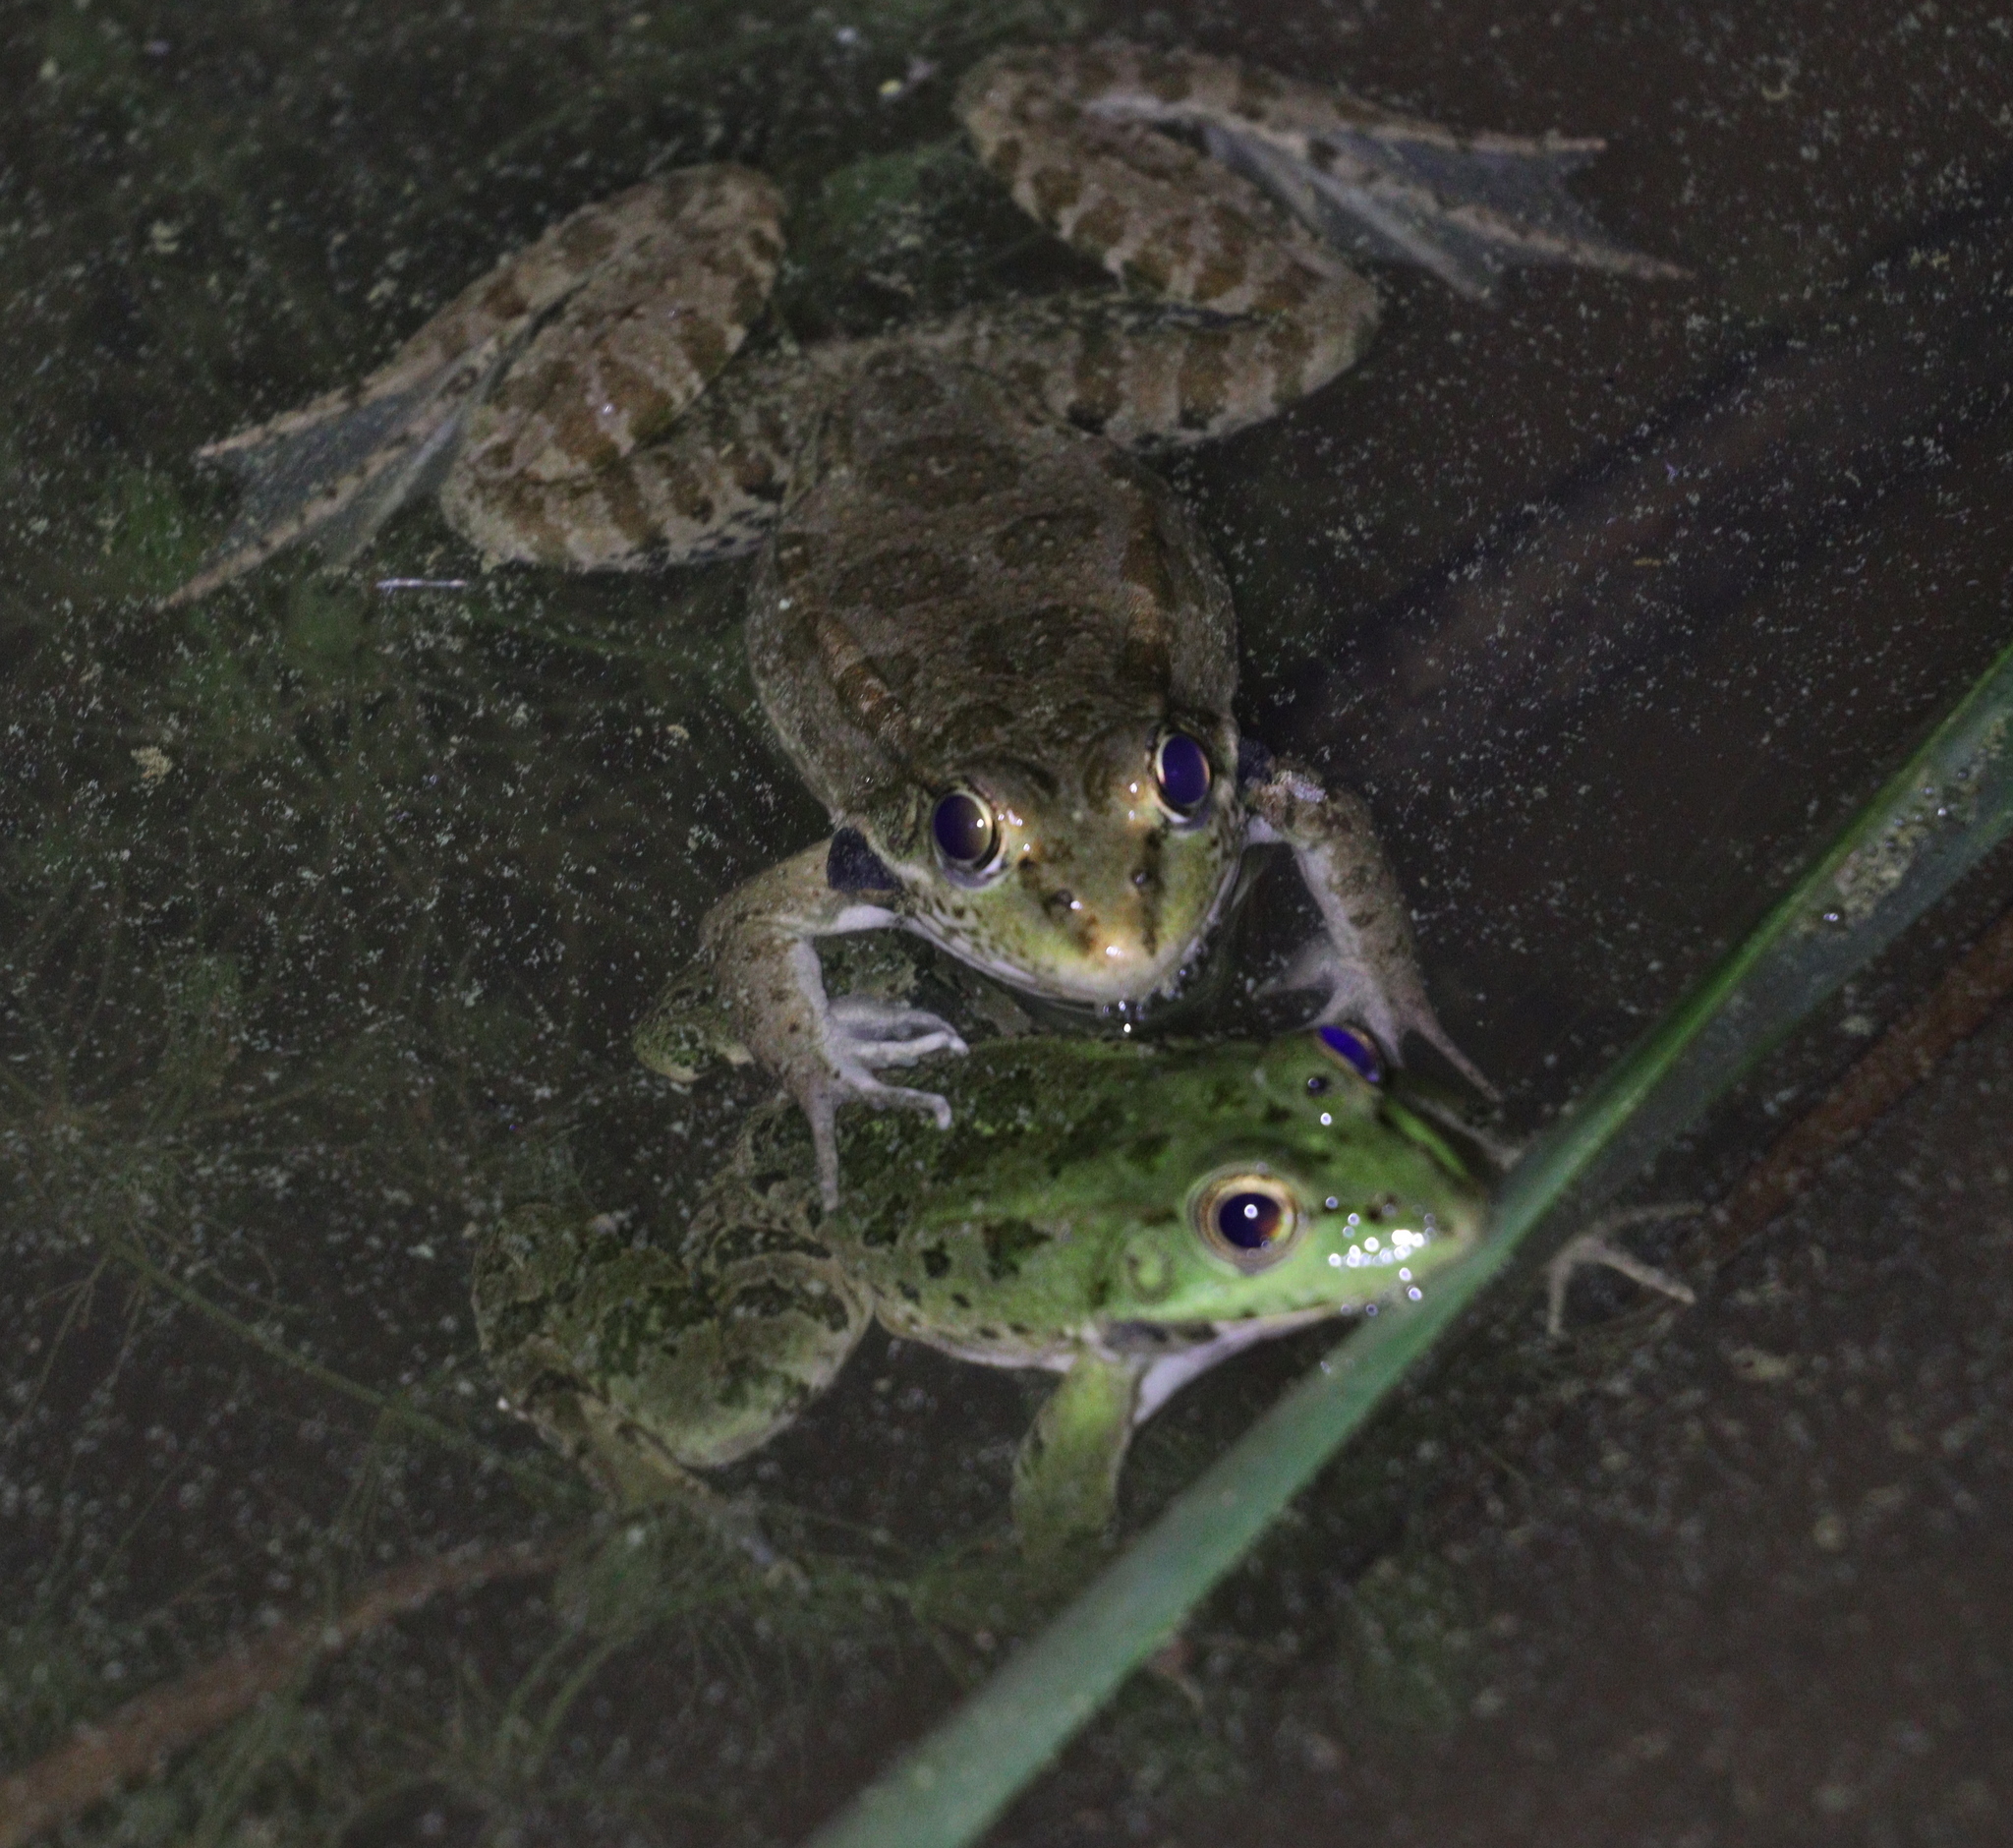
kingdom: Animalia
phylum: Chordata
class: Amphibia
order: Anura
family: Ranidae
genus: Pelophylax
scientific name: Pelophylax ridibundus
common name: Marsh frog
